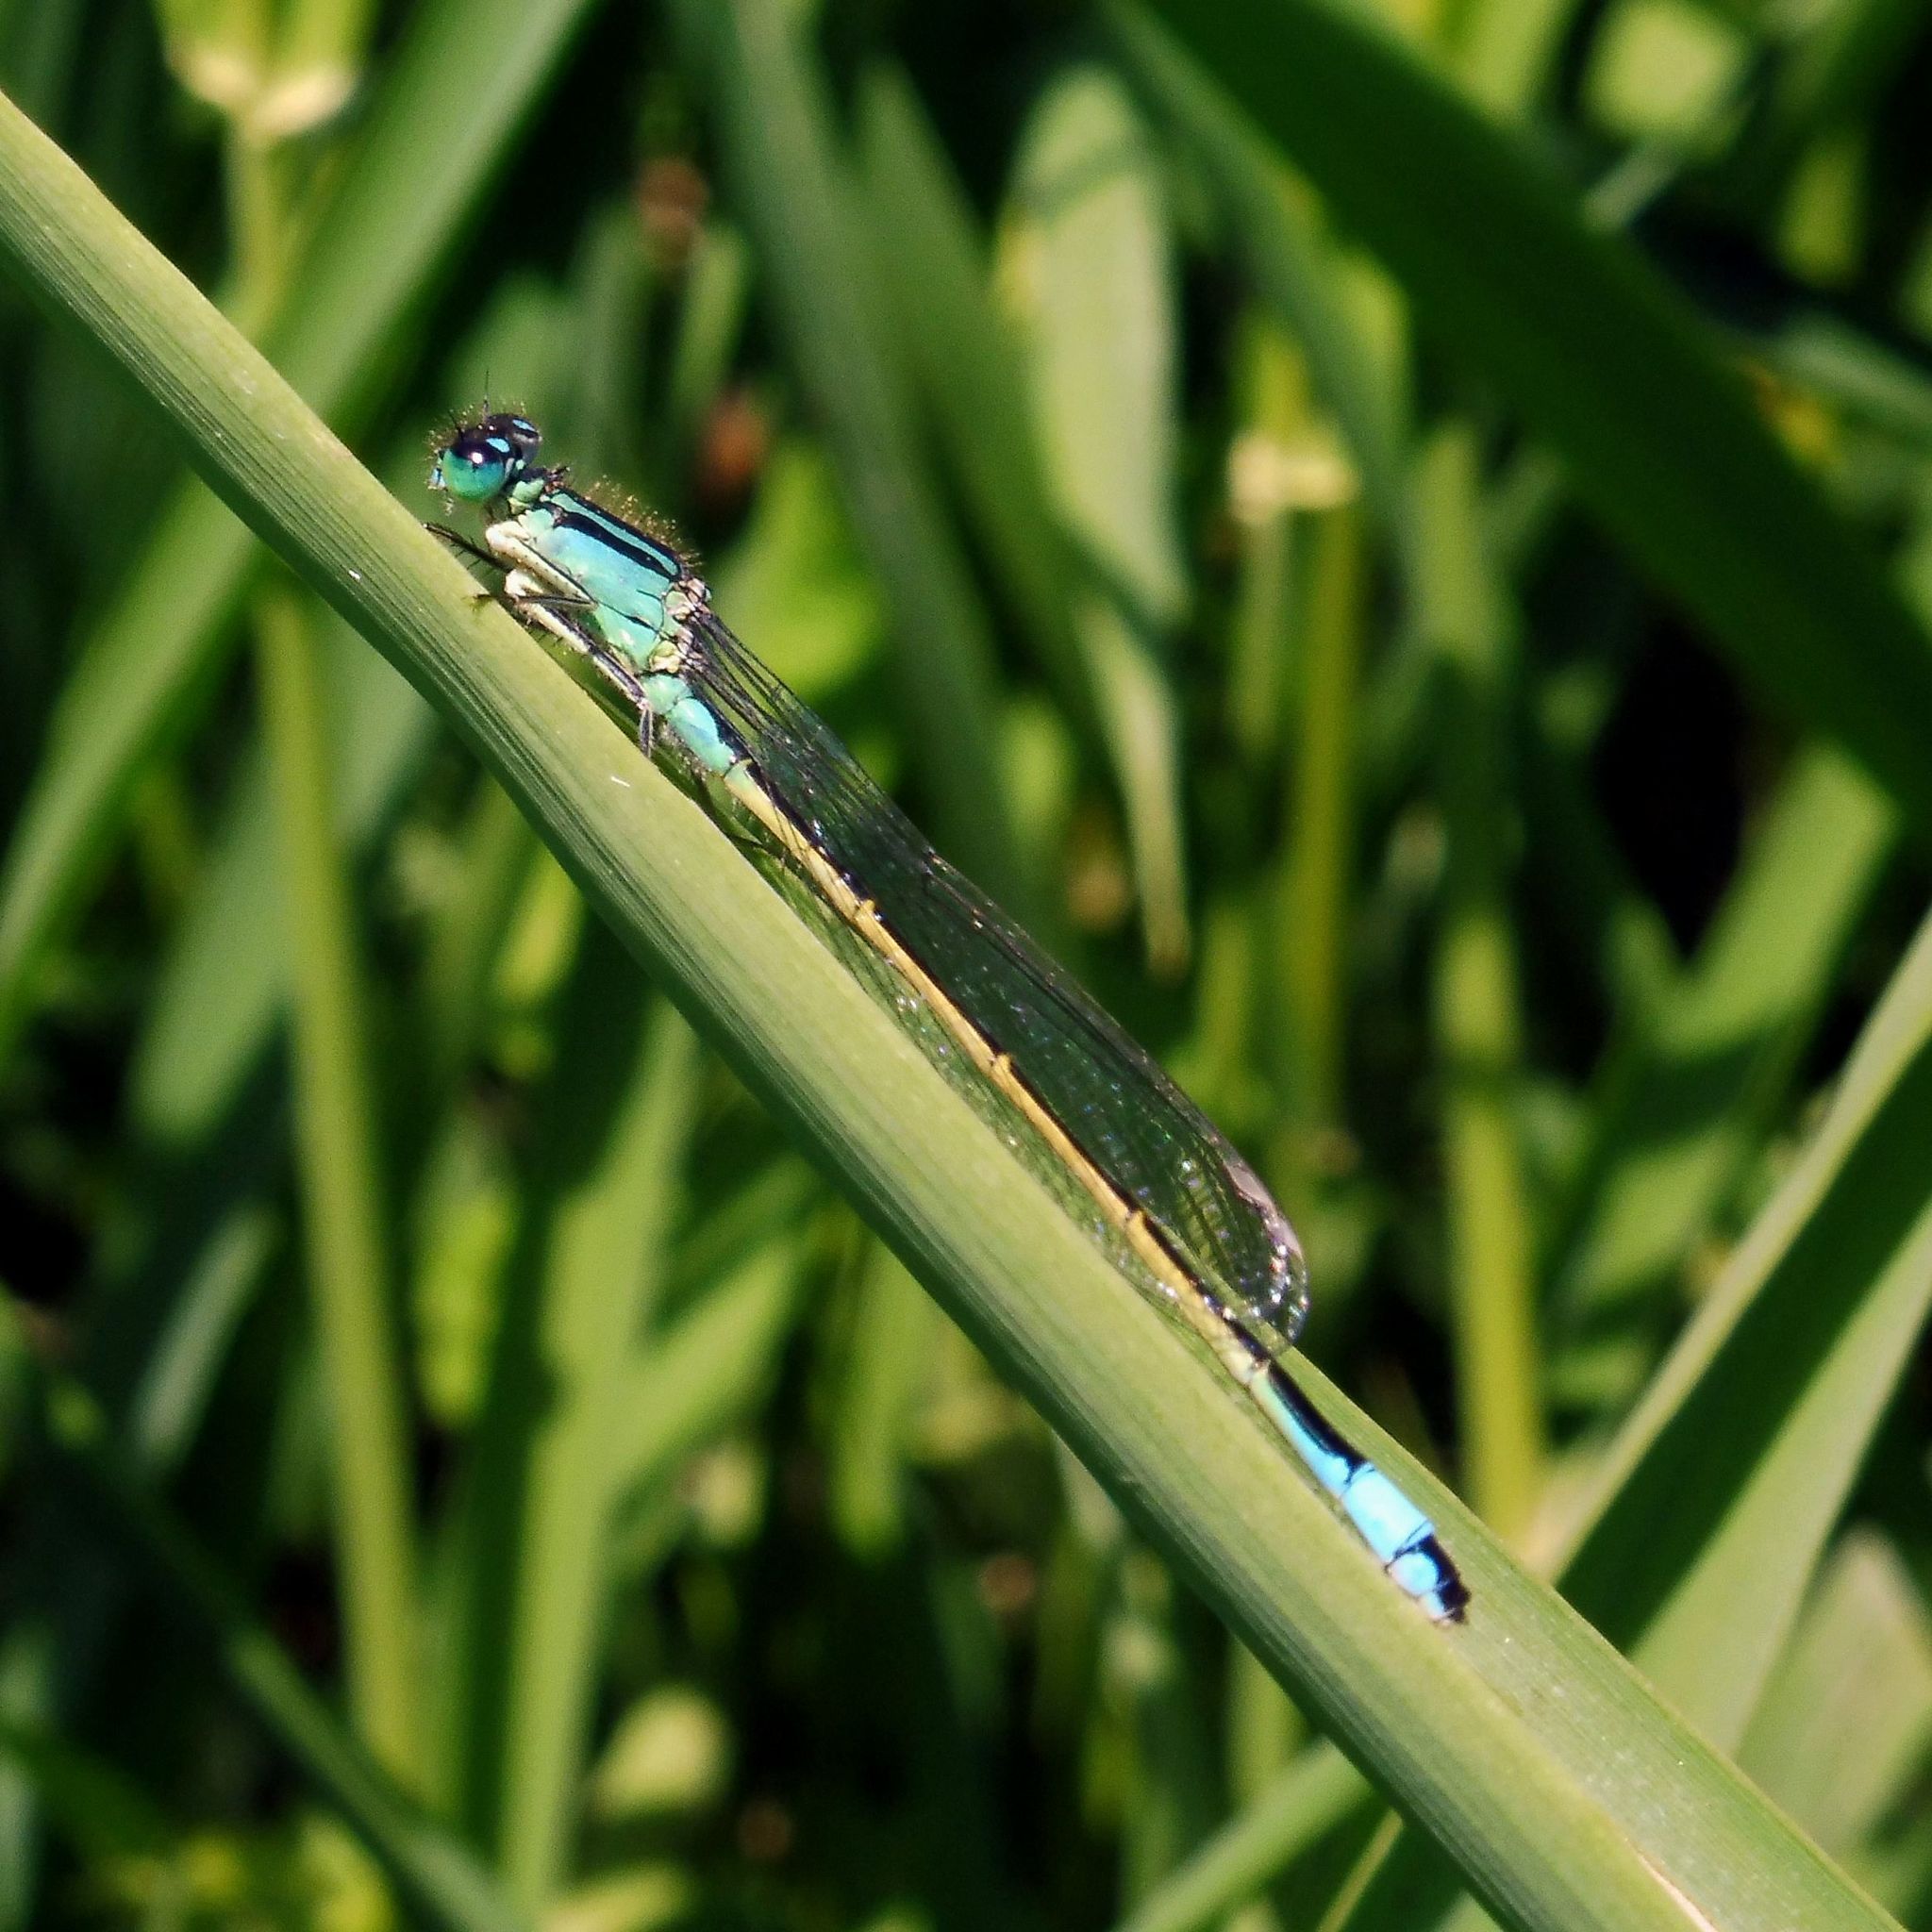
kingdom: Animalia
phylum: Arthropoda
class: Insecta
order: Odonata
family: Coenagrionidae
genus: Ischnura
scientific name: Ischnura elegans
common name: Blue-tailed damselfly
